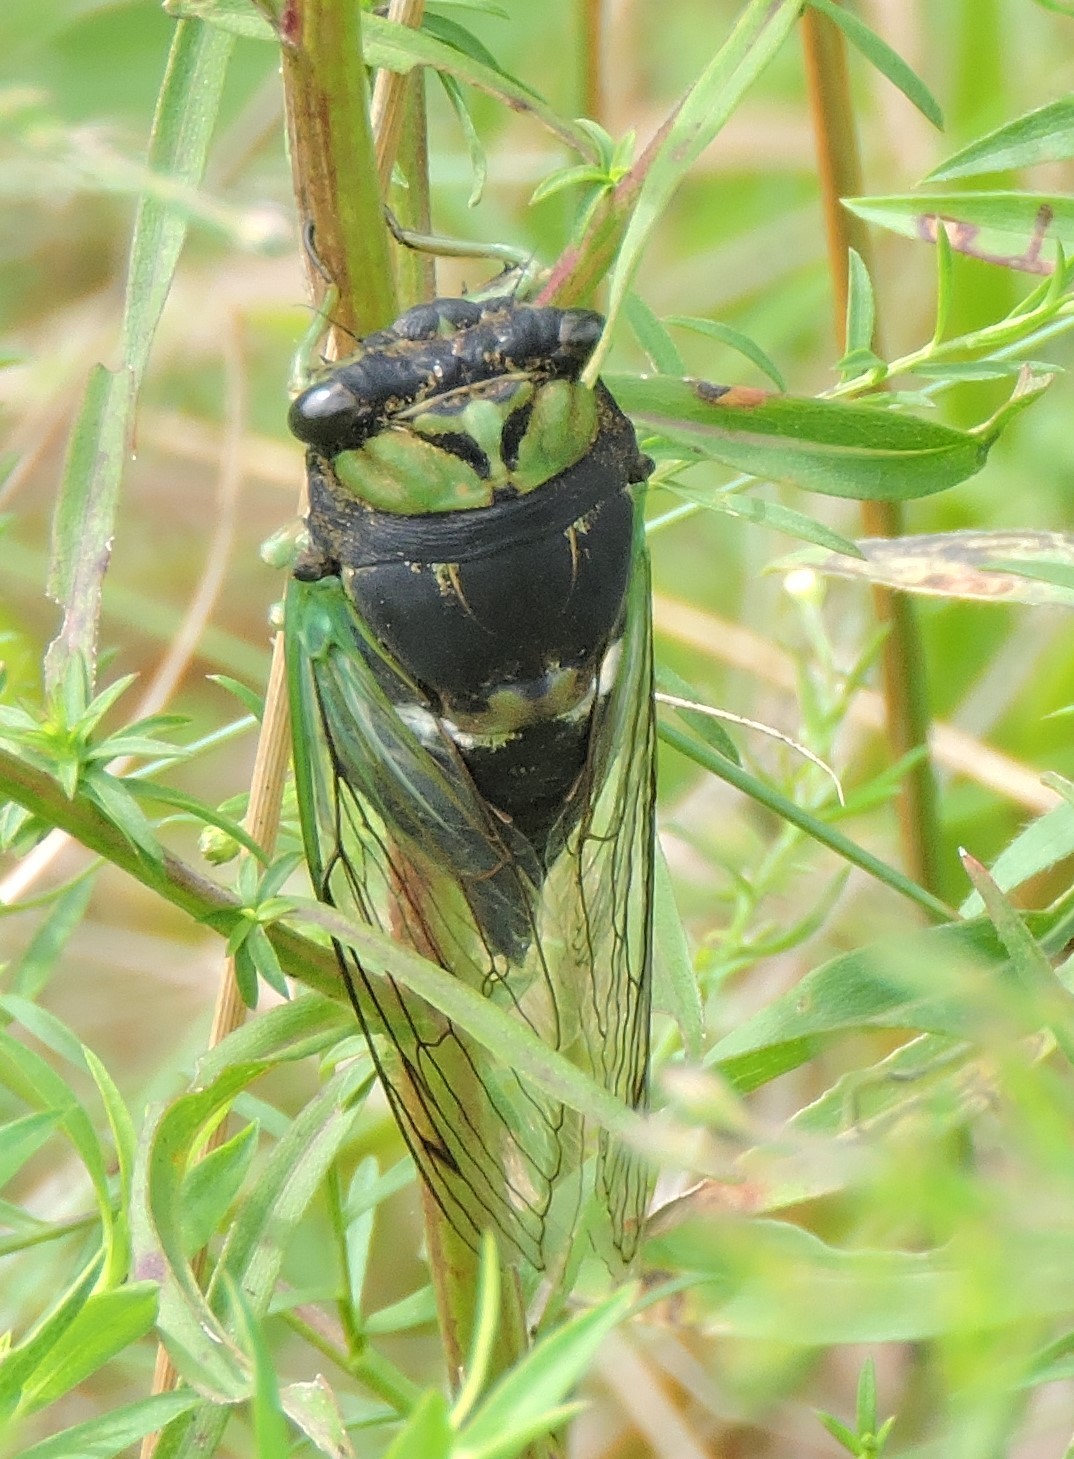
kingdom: Animalia
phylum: Arthropoda
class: Insecta
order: Hemiptera
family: Cicadidae
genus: Neotibicen
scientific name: Neotibicen tibicen
